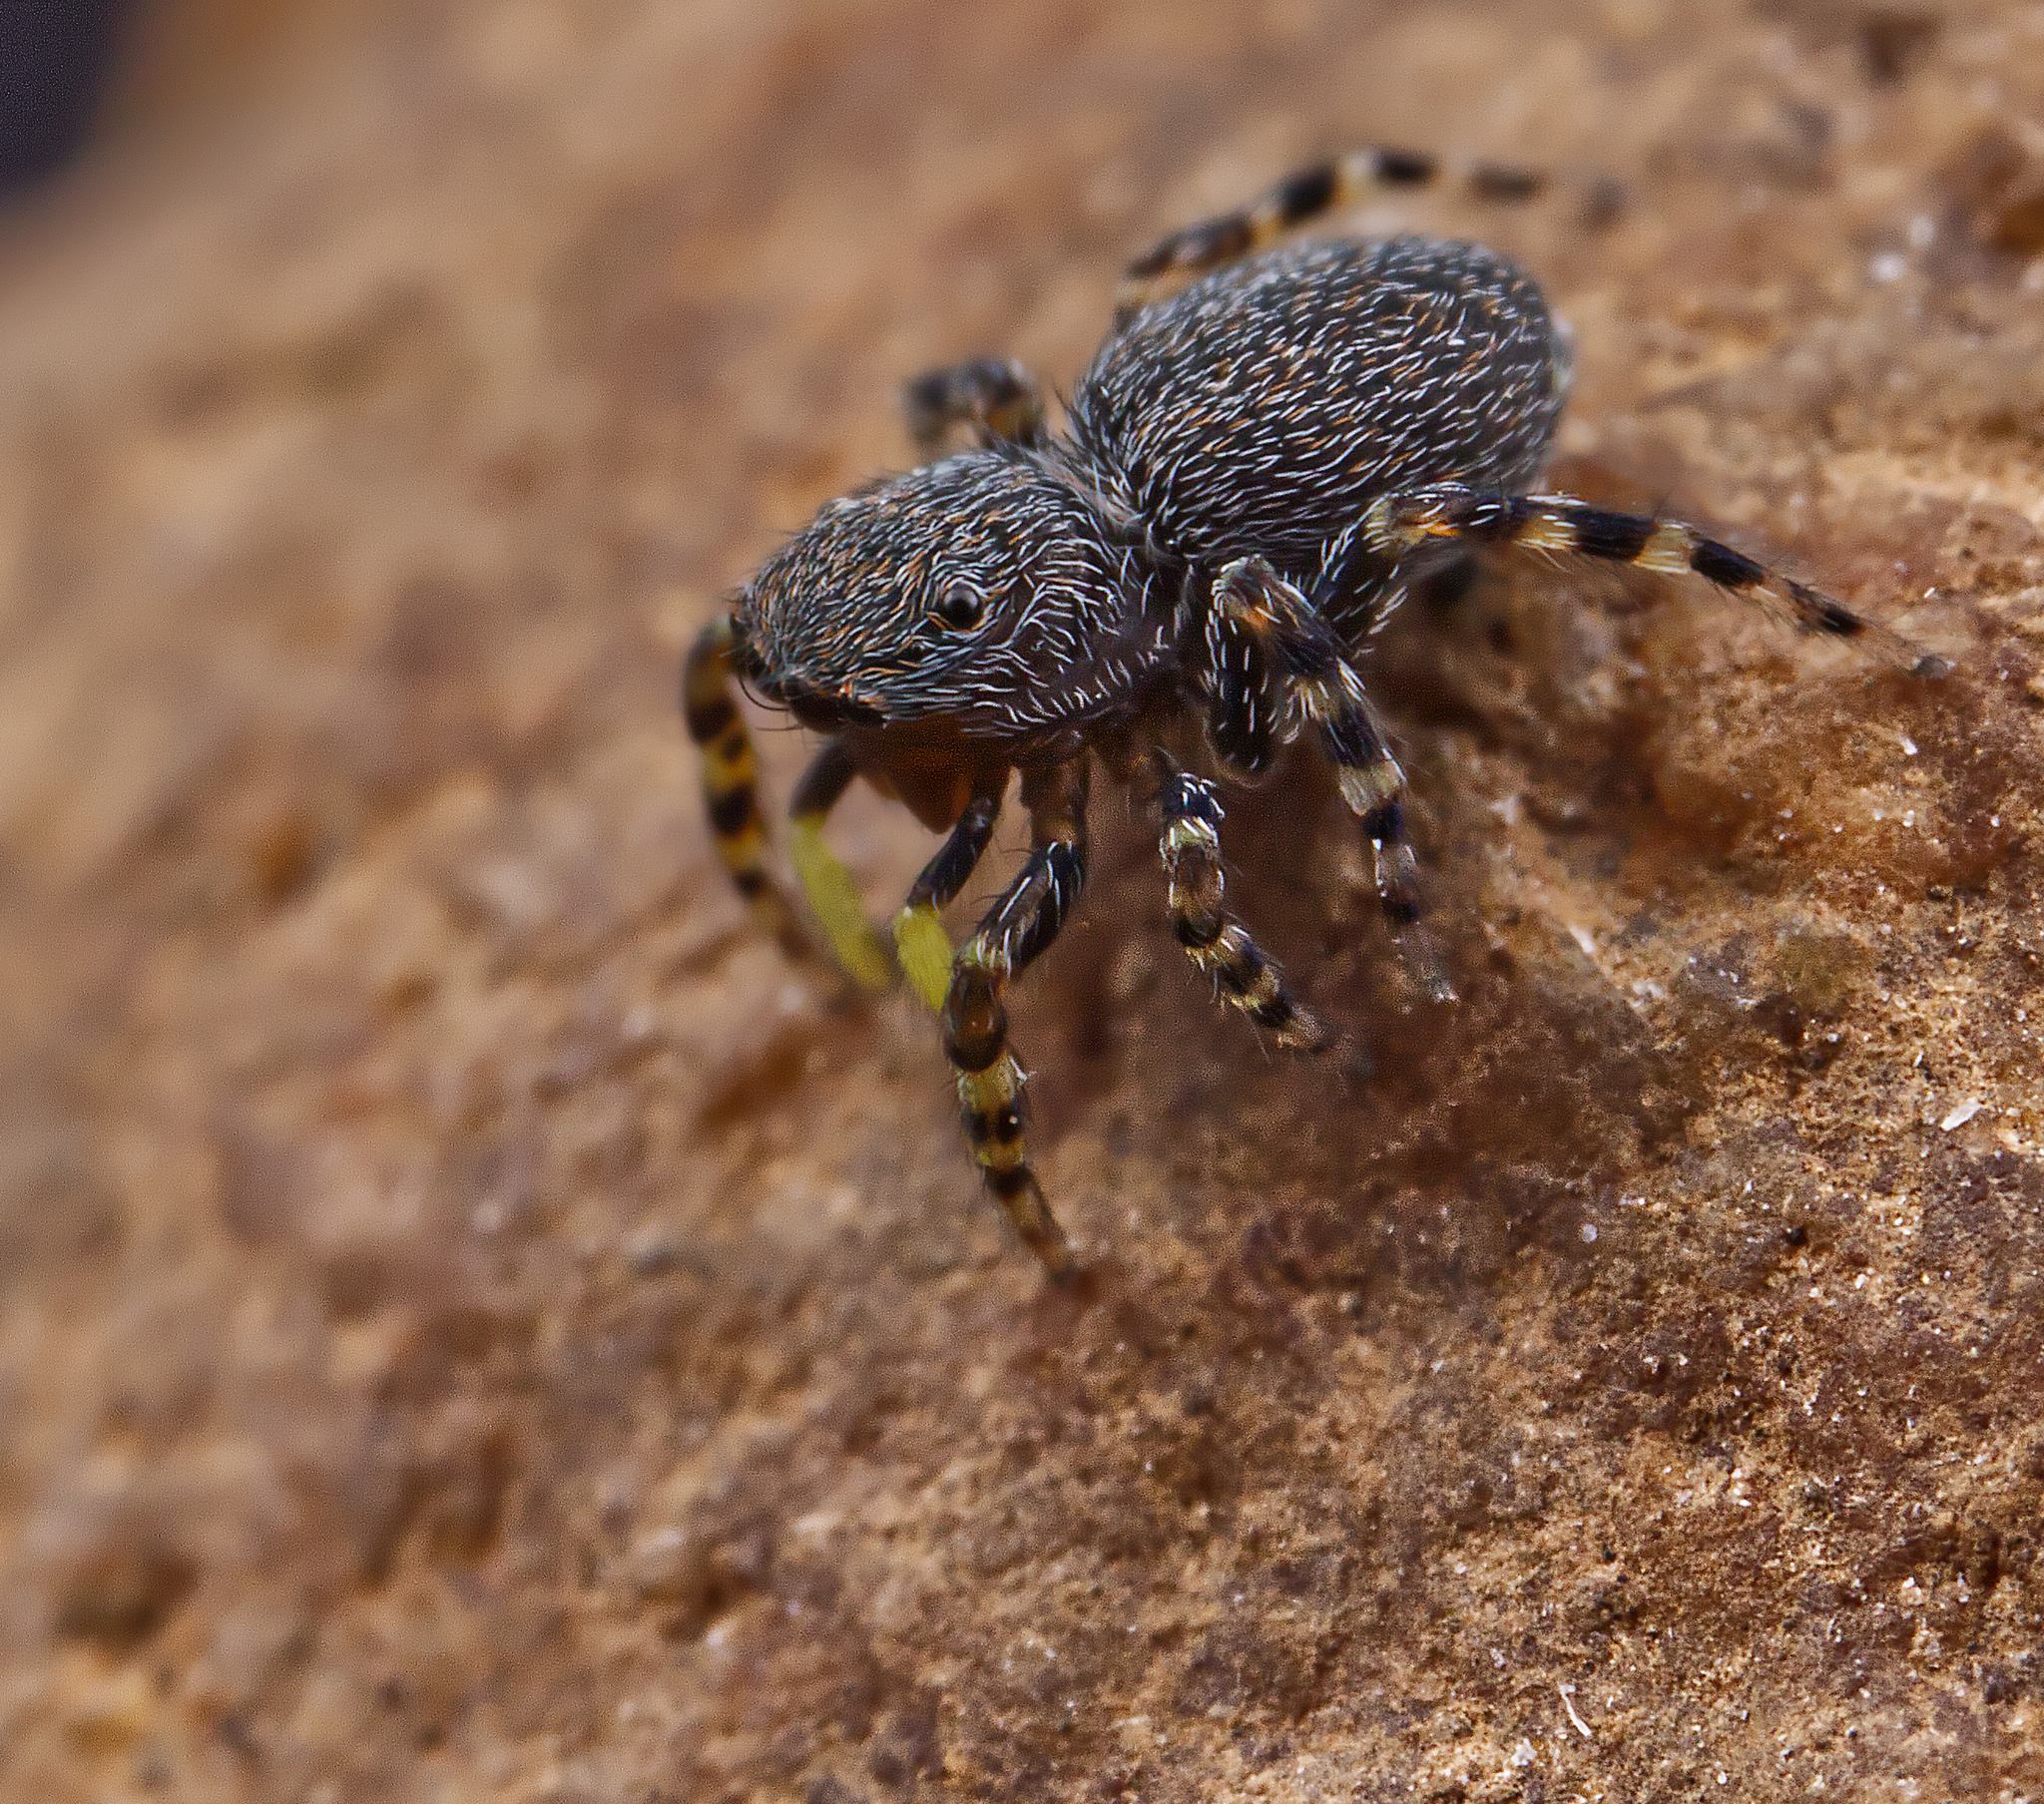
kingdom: Animalia
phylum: Arthropoda
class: Arachnida
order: Araneae
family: Salticidae
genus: Talavera
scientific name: Talavera minuta
